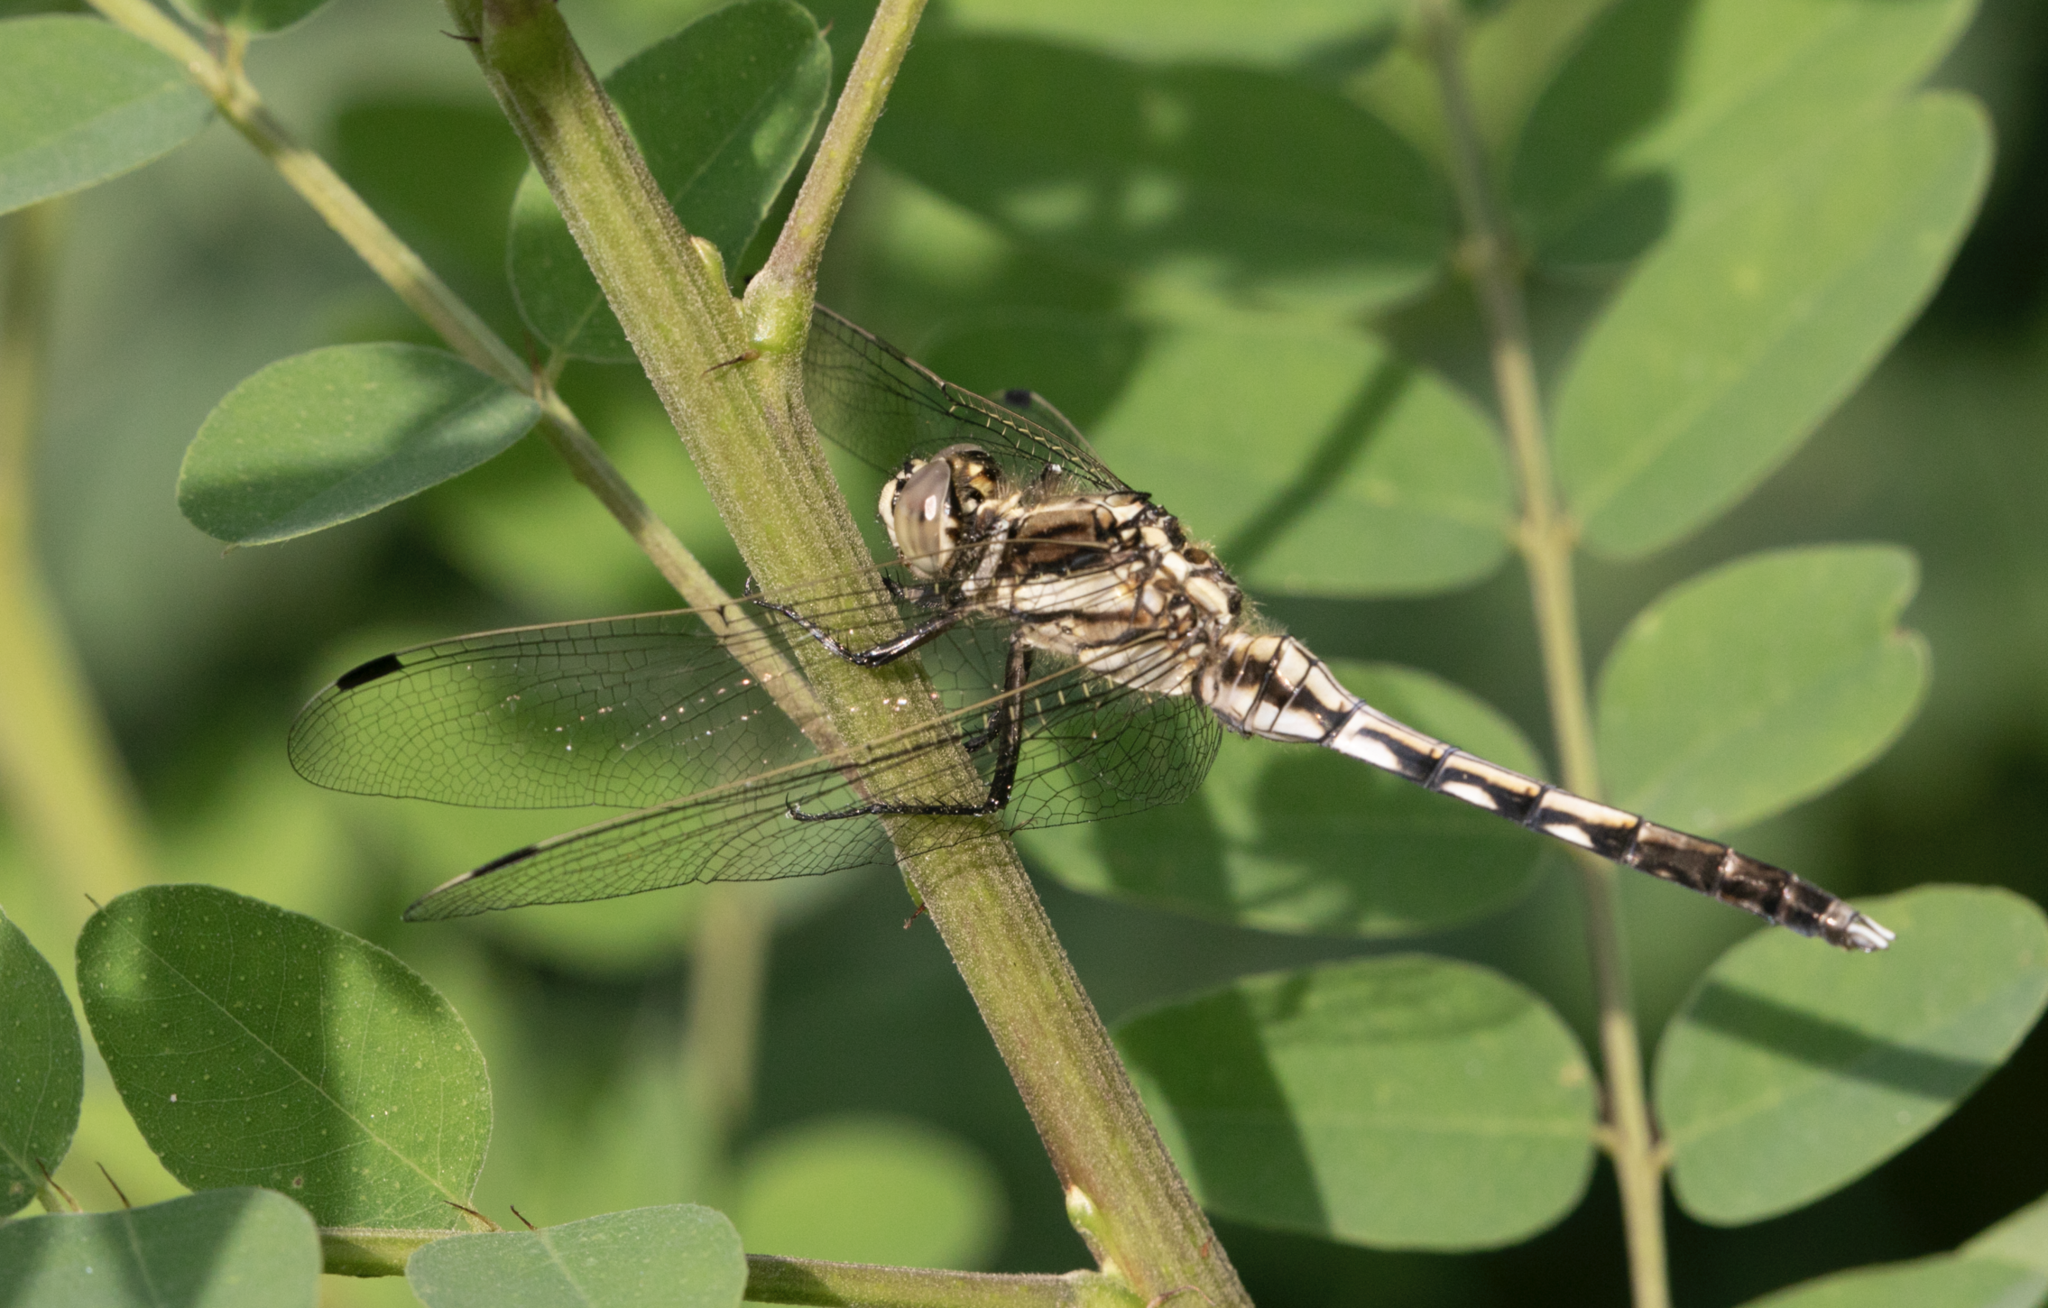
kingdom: Animalia
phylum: Arthropoda
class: Insecta
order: Odonata
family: Libellulidae
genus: Orthetrum
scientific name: Orthetrum albistylum
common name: White-tailed skimmer
